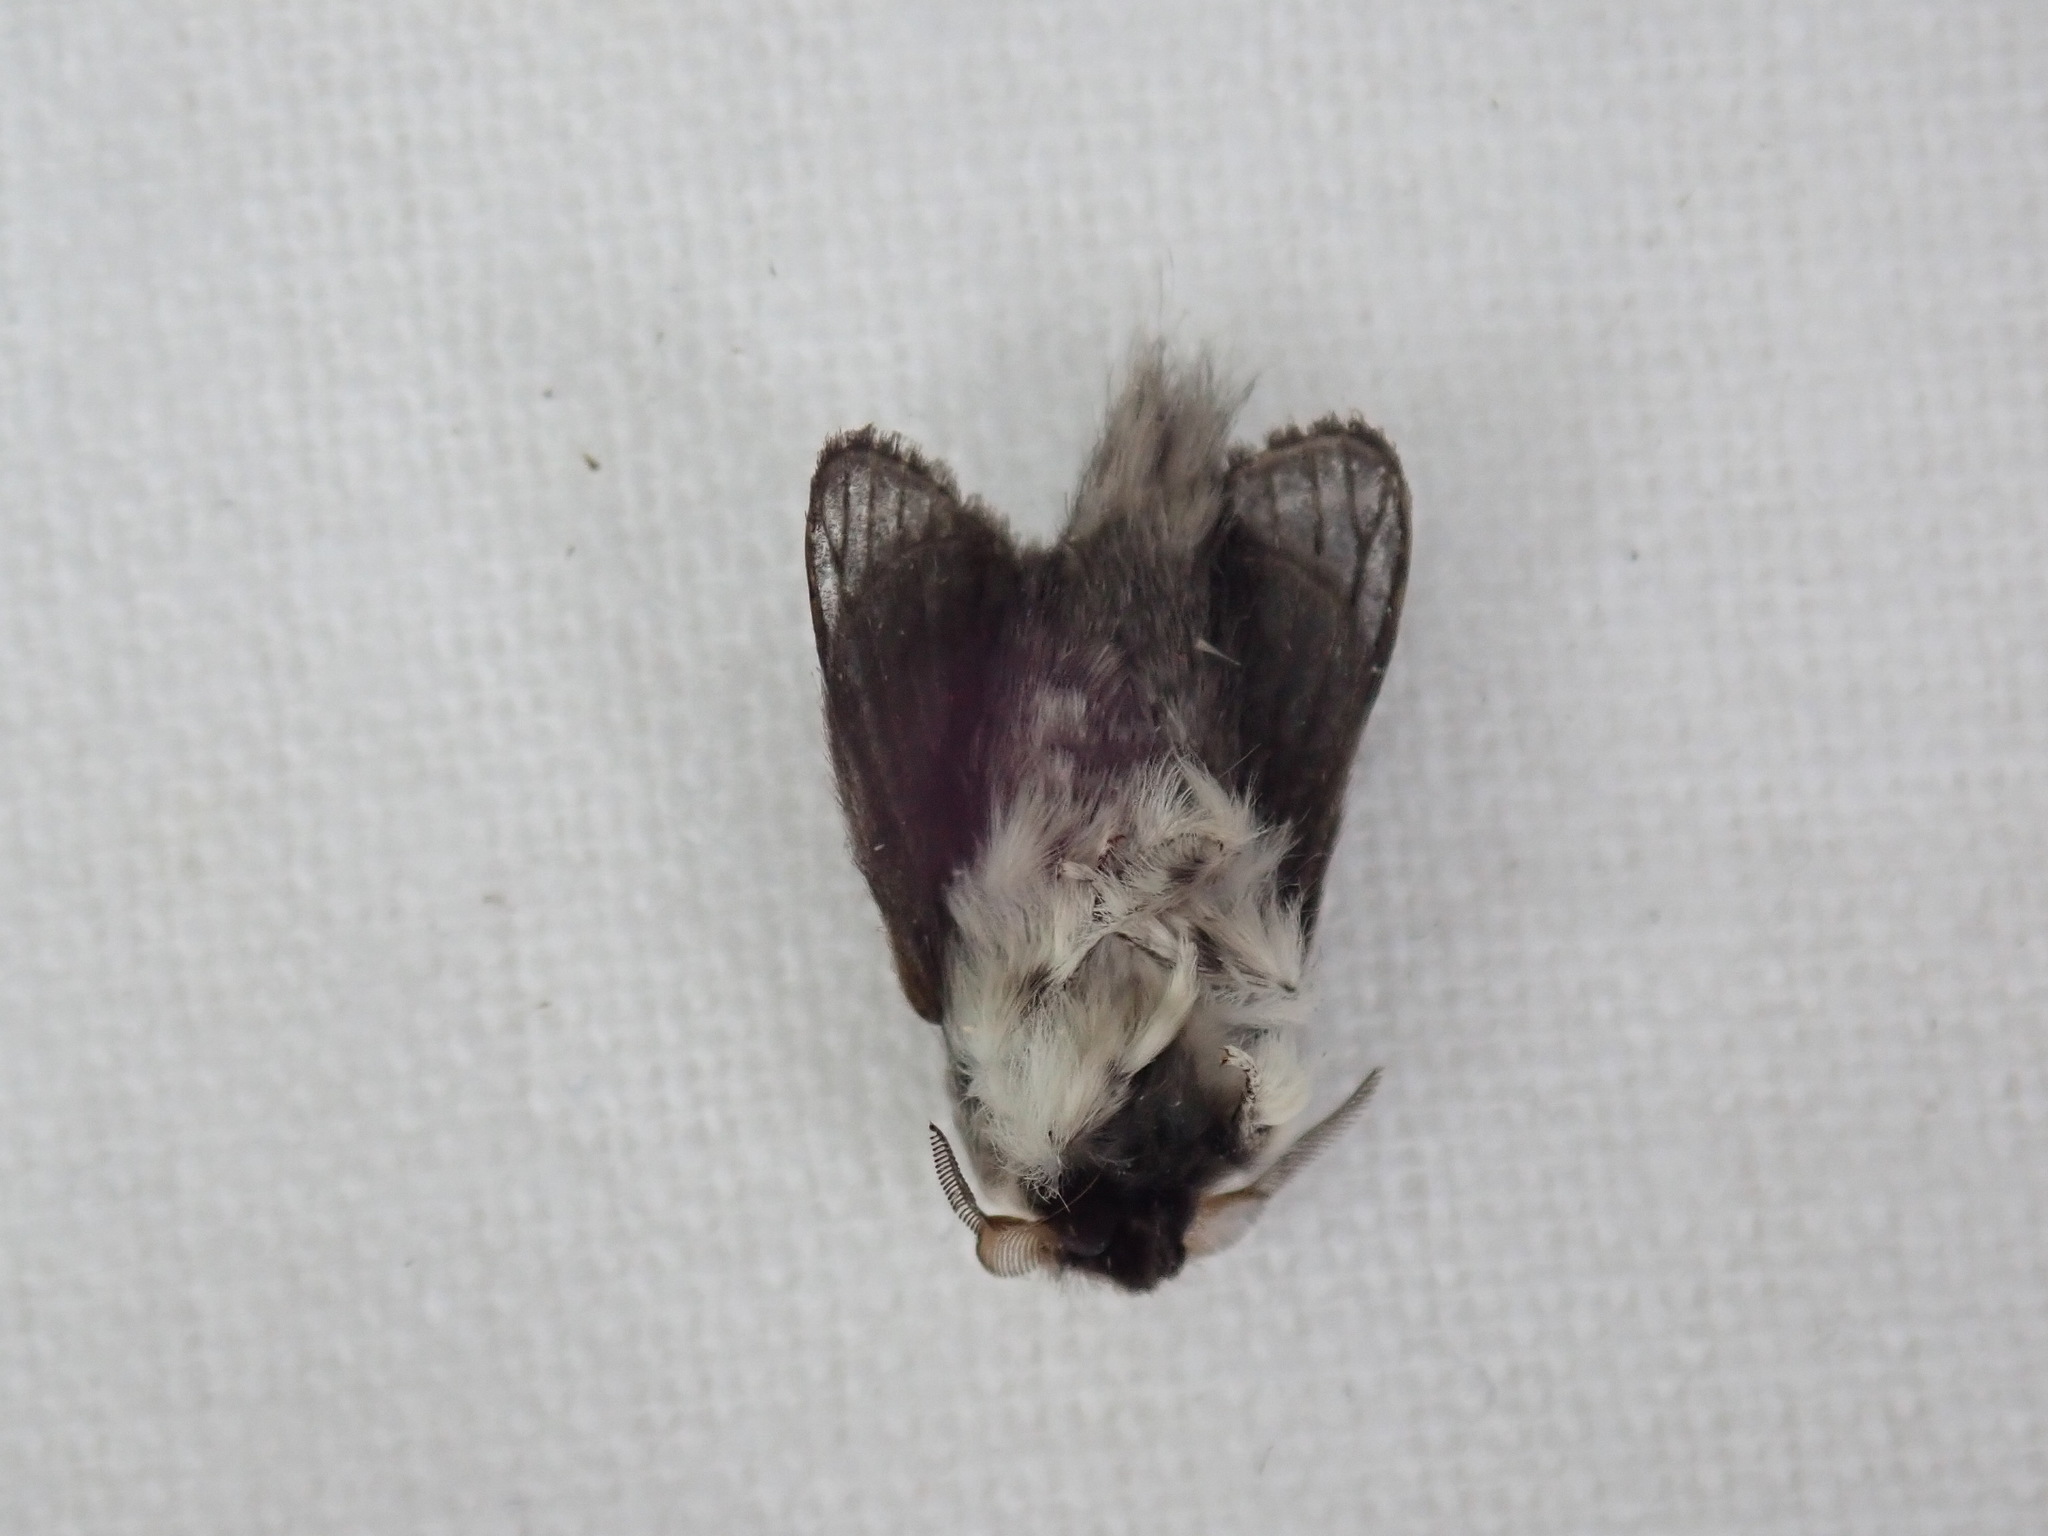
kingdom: Animalia
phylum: Arthropoda
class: Insecta
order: Lepidoptera
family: Lasiocampidae
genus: Tolype
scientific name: Tolype laricis
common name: Larch tolype moth
